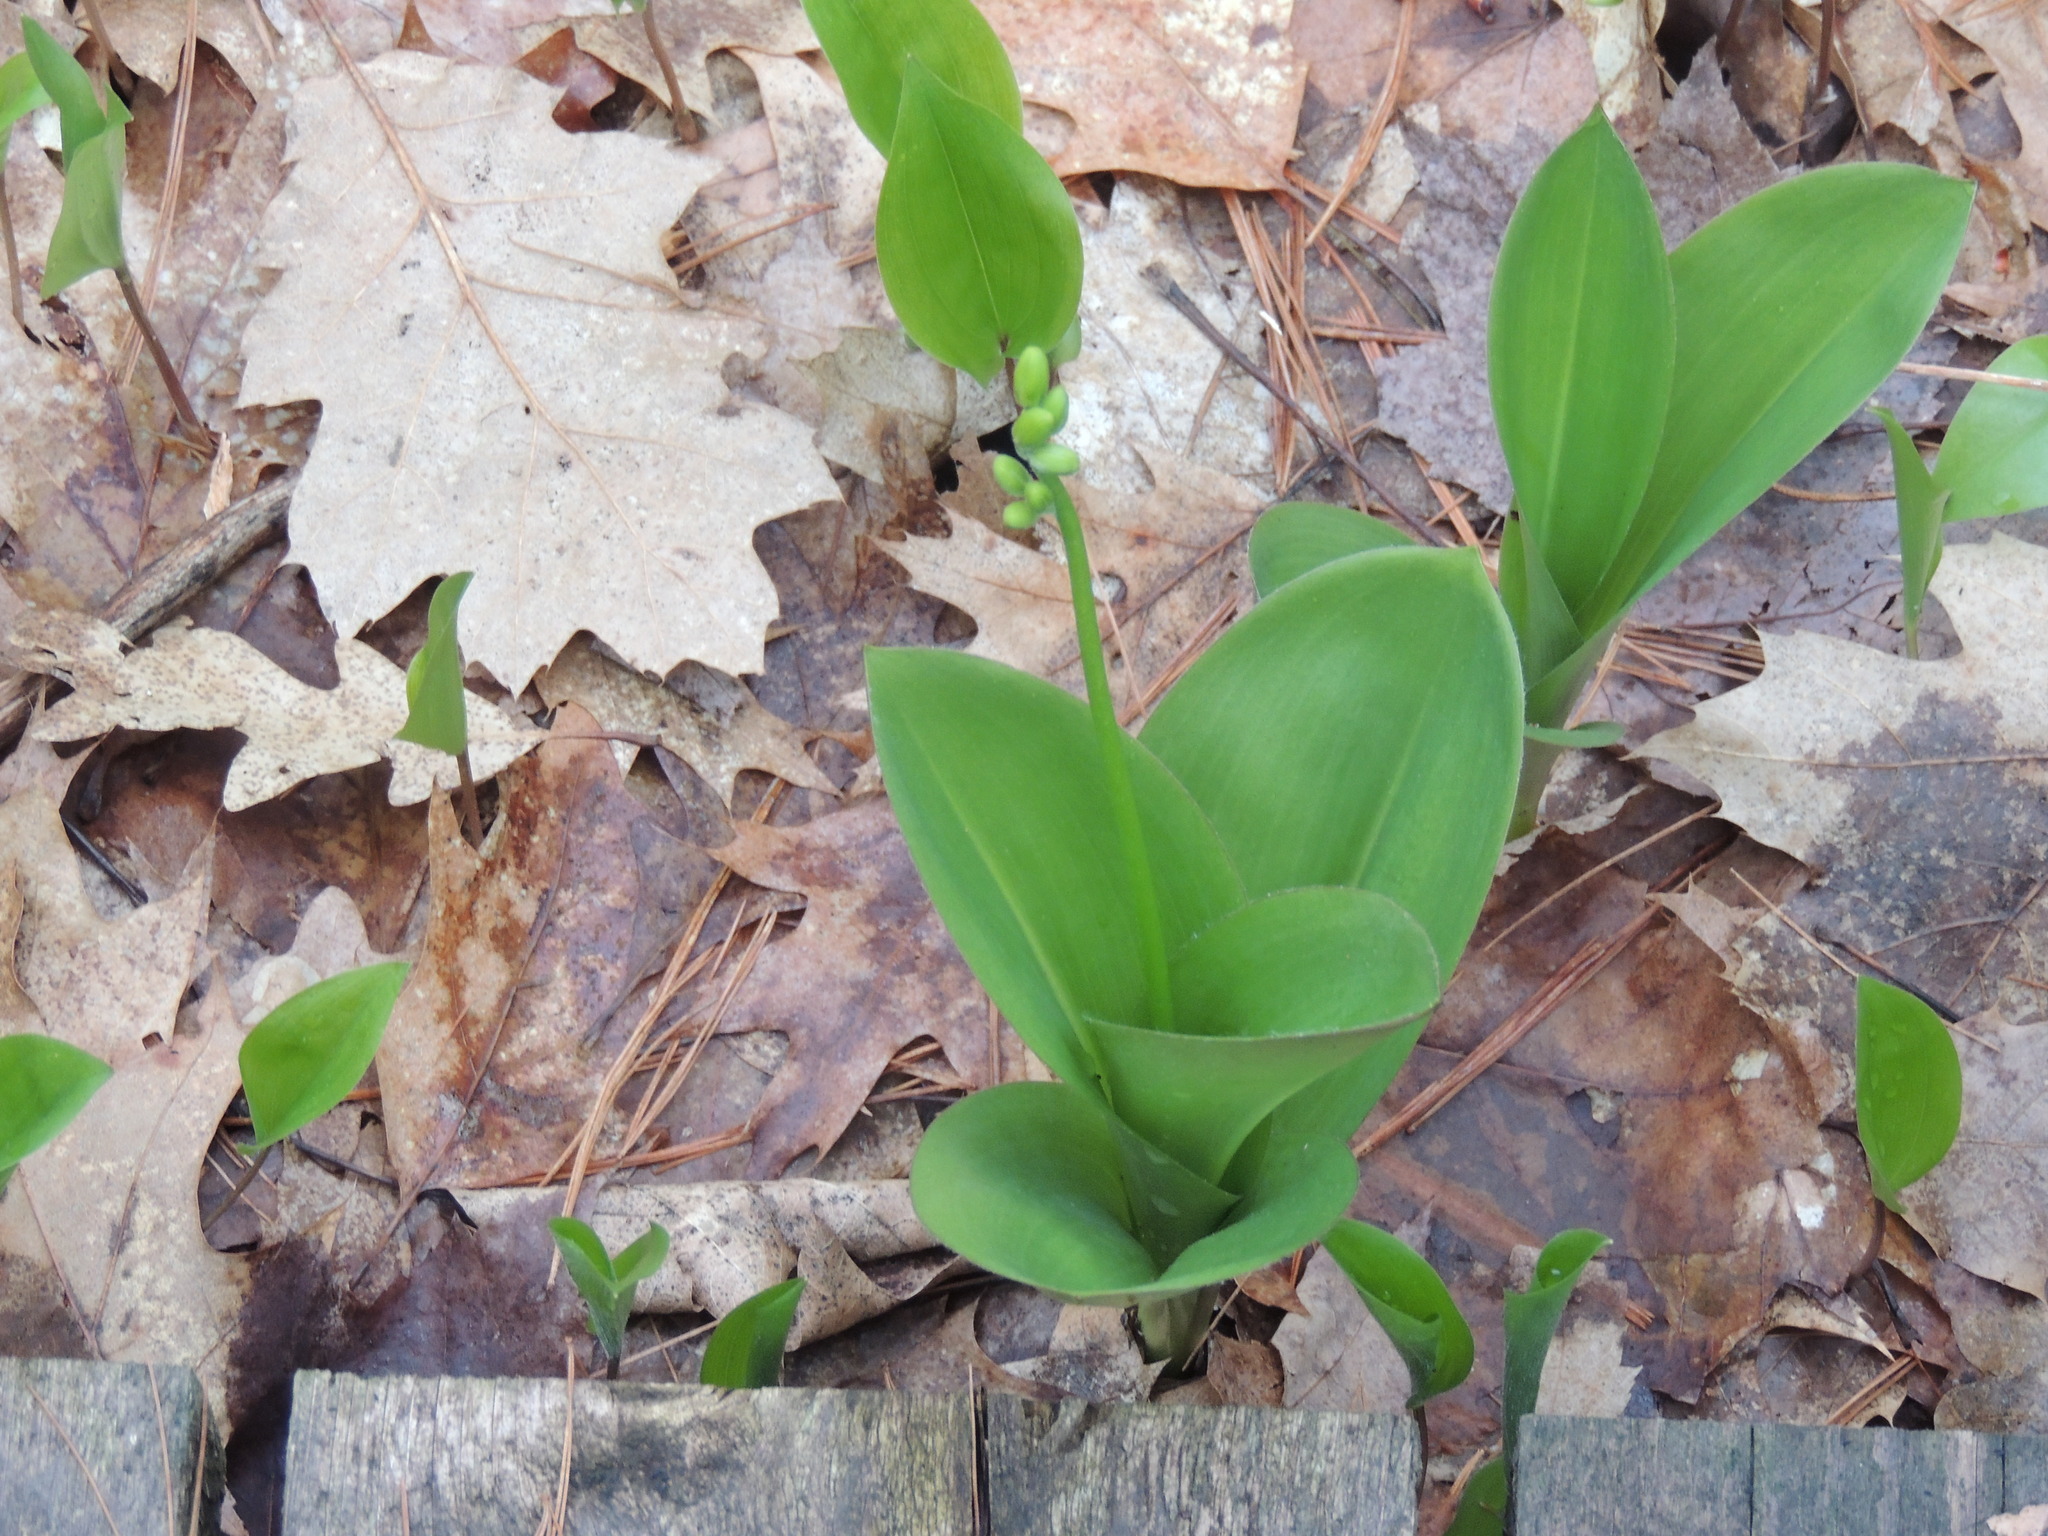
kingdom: Plantae
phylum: Tracheophyta
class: Liliopsida
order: Asparagales
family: Asparagaceae
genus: Convallaria
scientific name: Convallaria majalis
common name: Lily-of-the-valley
